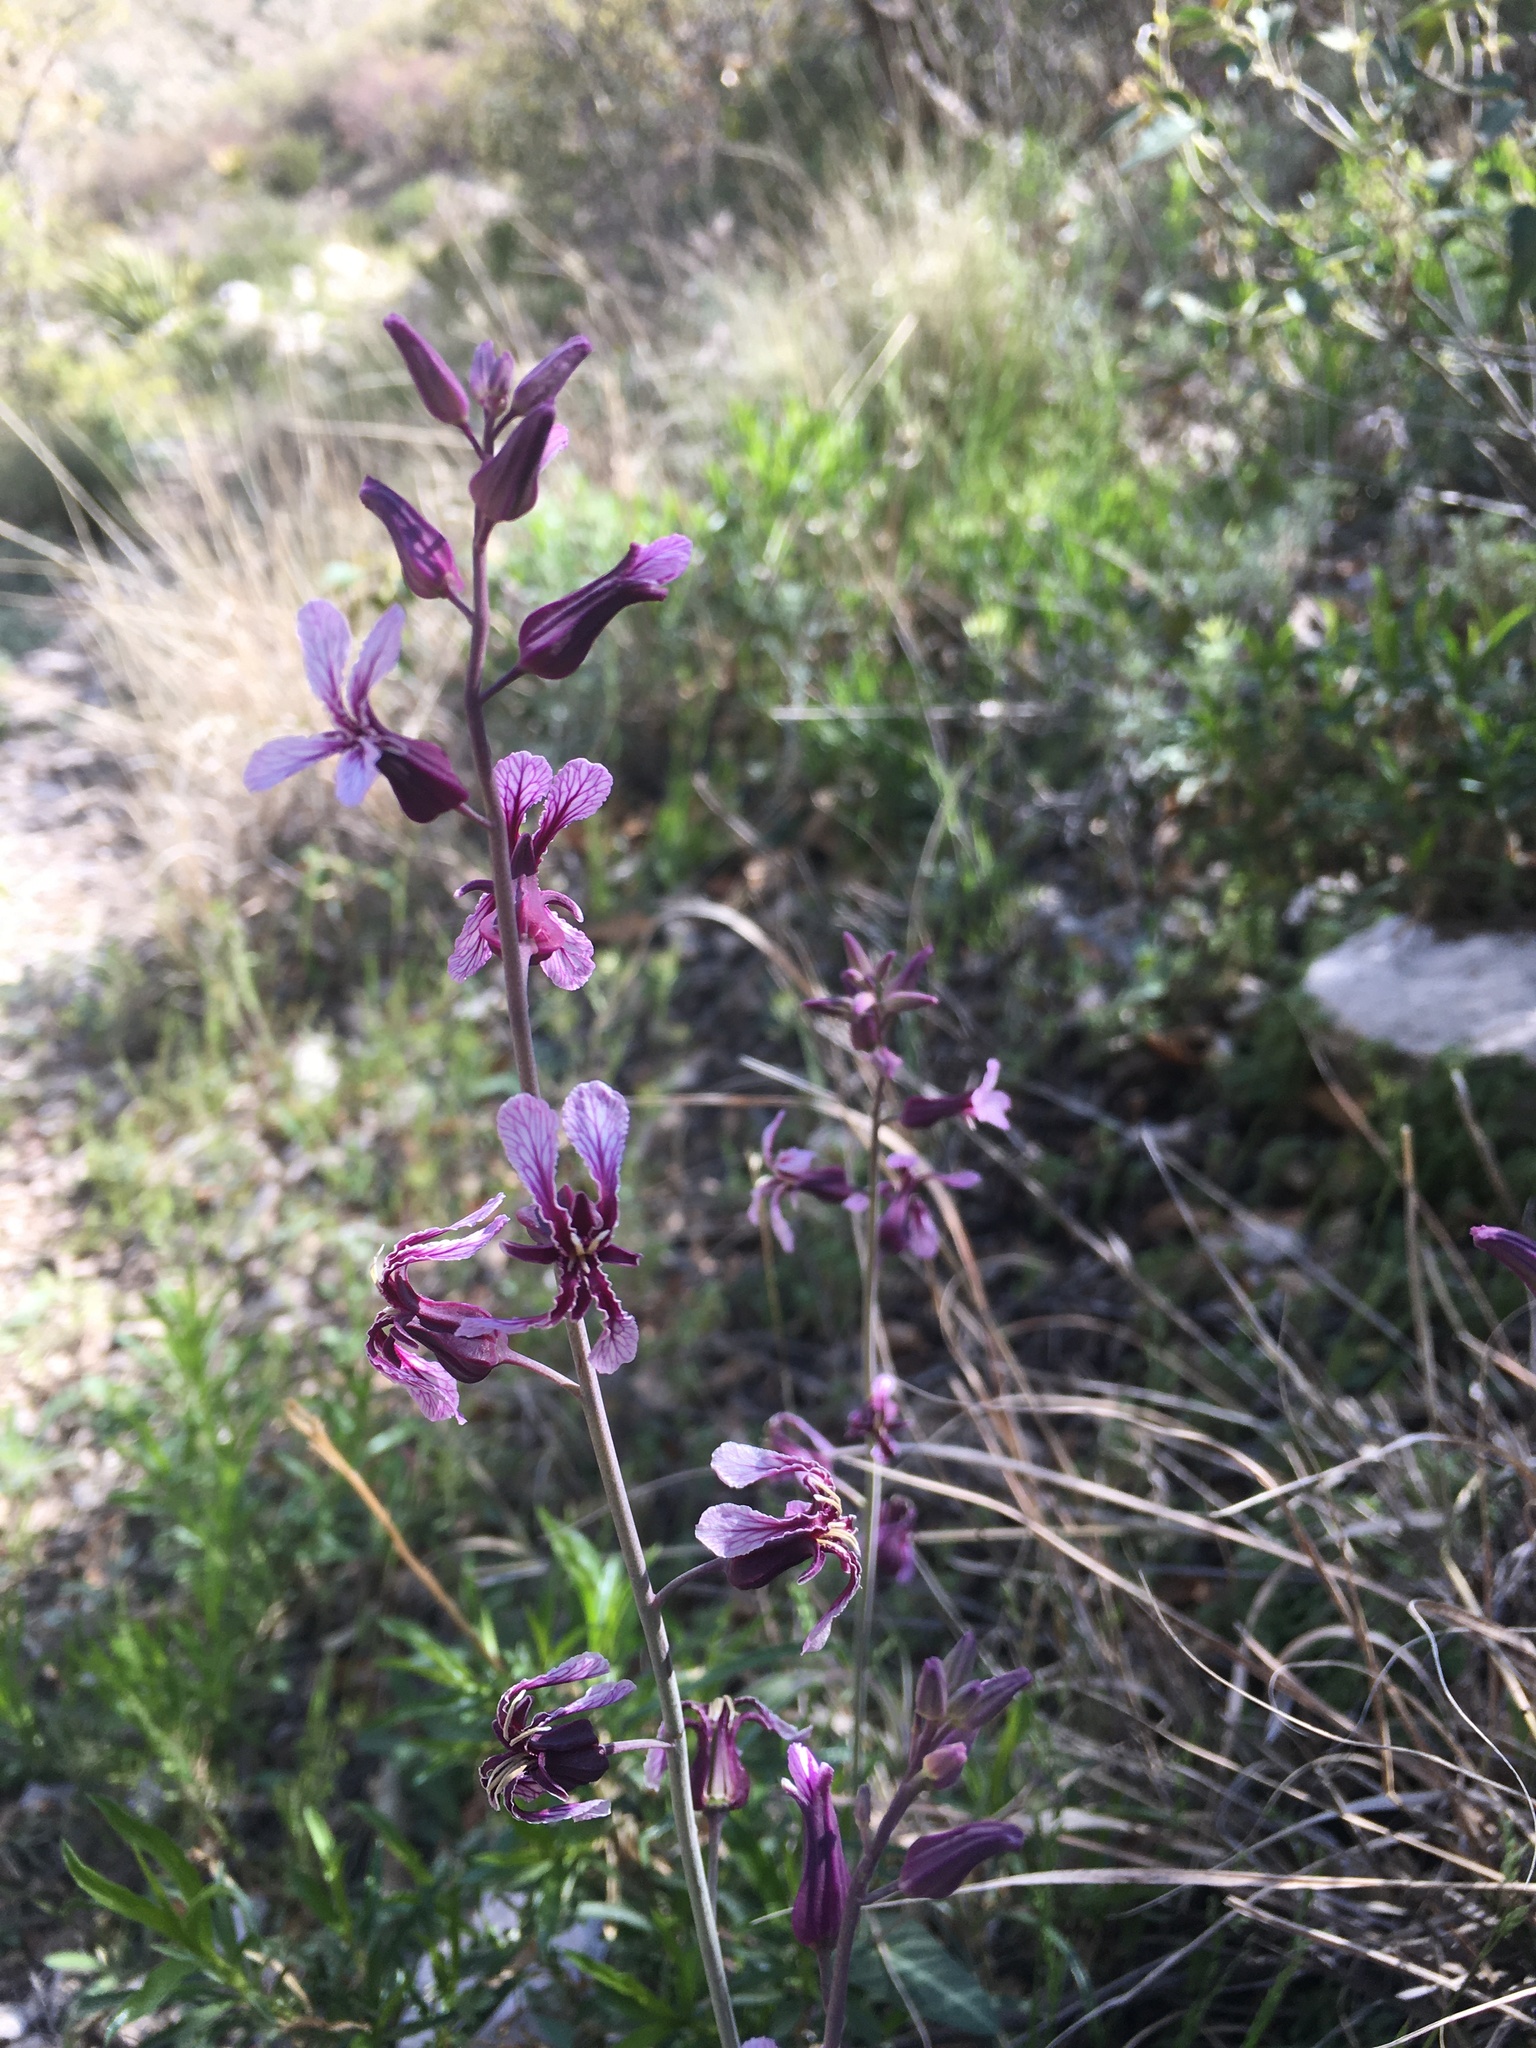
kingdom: Plantae
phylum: Tracheophyta
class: Magnoliopsida
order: Brassicales
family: Brassicaceae
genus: Streptanthus
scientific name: Streptanthus platycarpus
